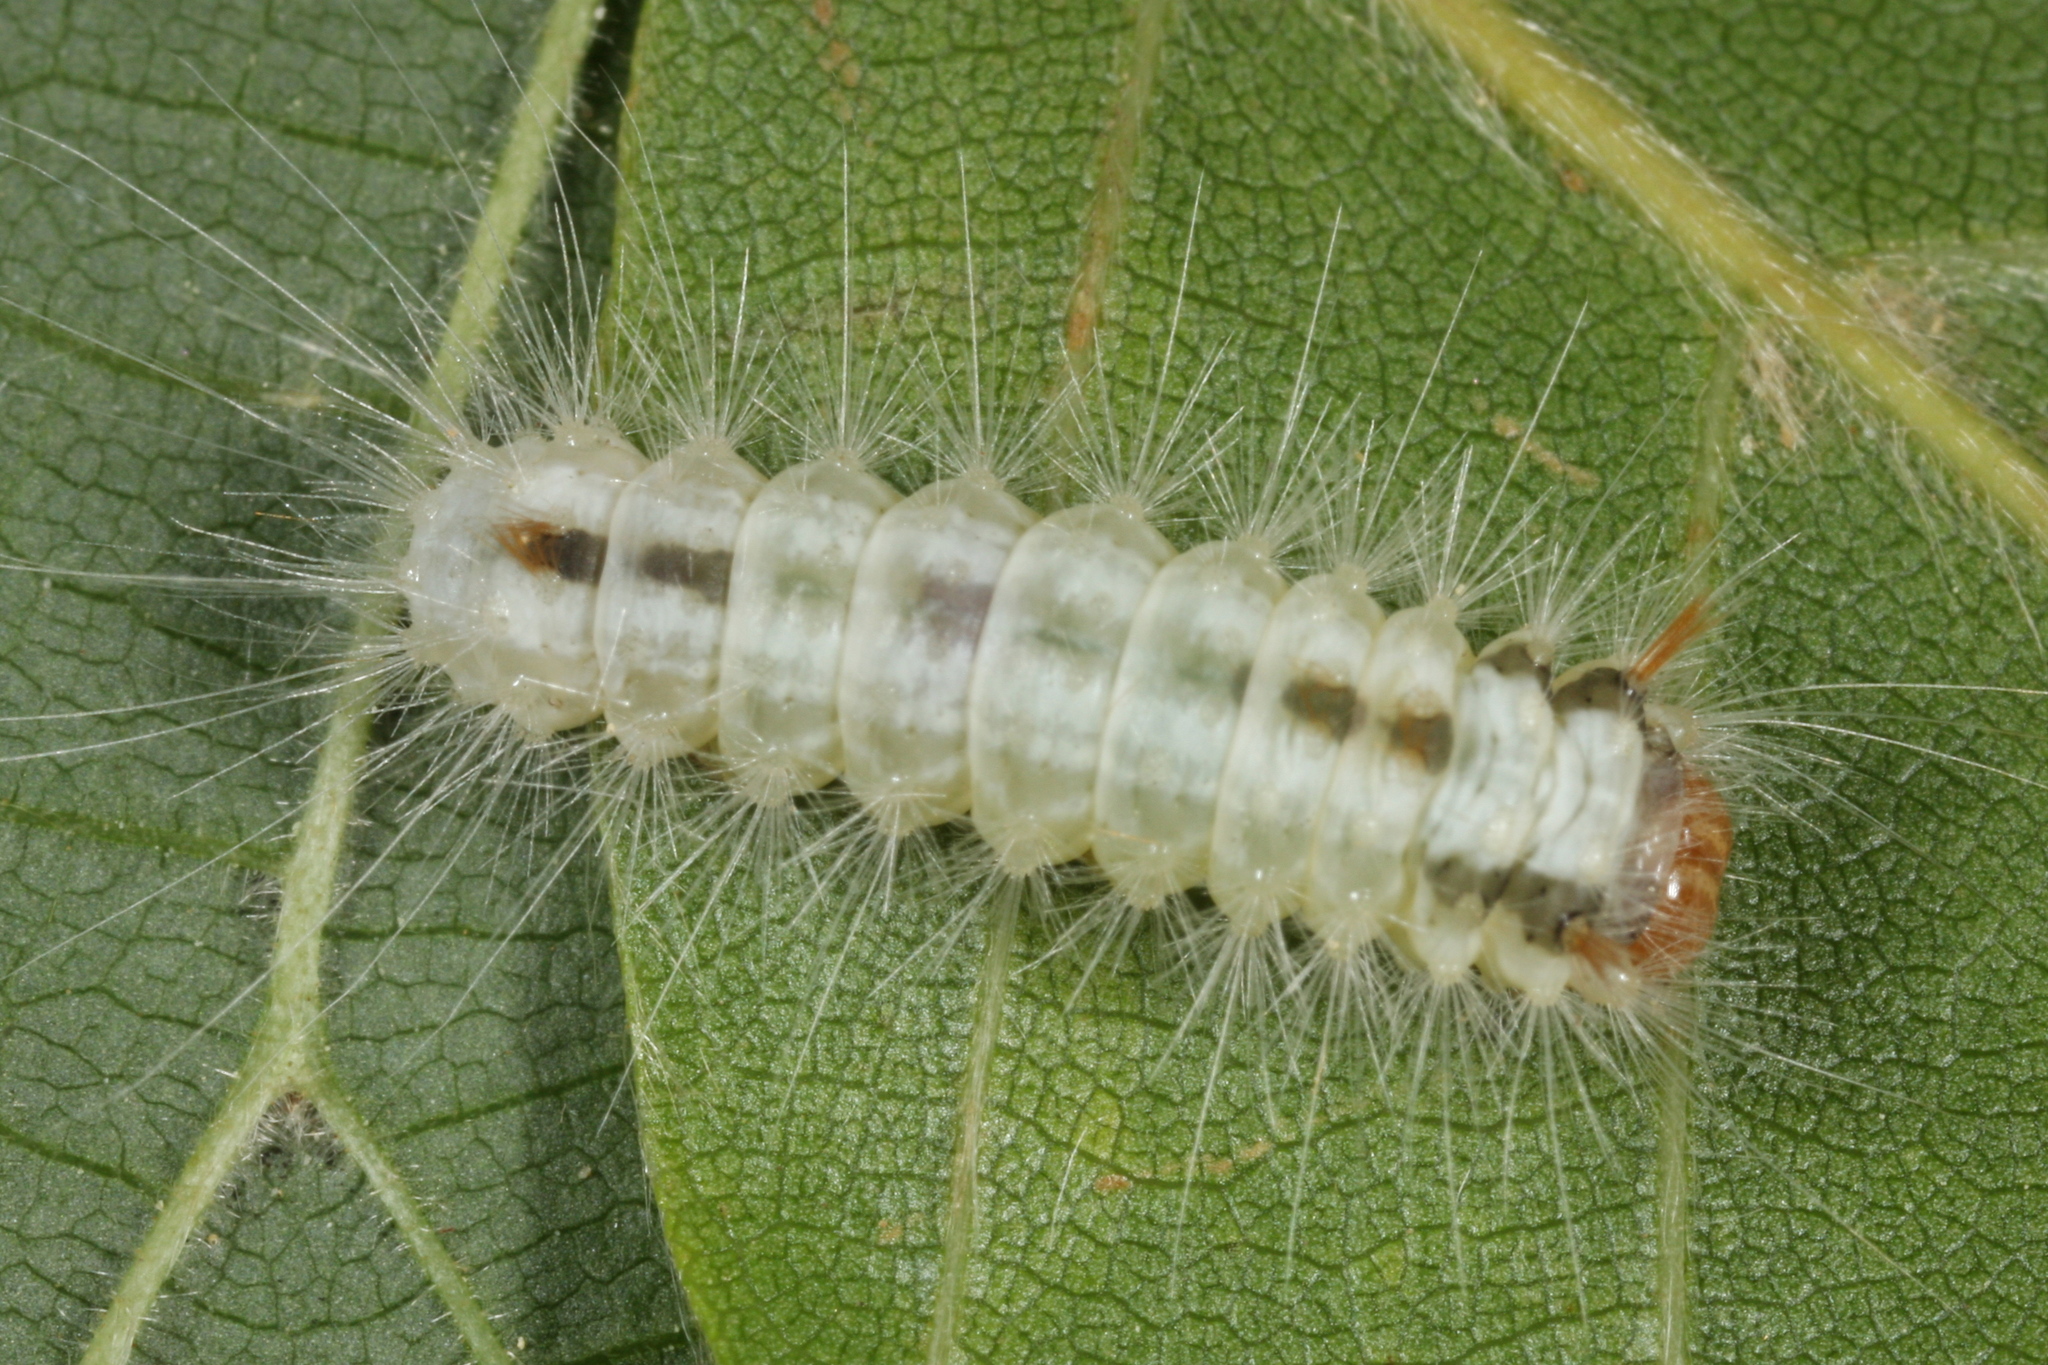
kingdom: Animalia
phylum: Arthropoda
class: Insecta
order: Lepidoptera
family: Noctuidae
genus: Colocasia
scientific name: Colocasia coryli
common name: Nut-tree tussock
